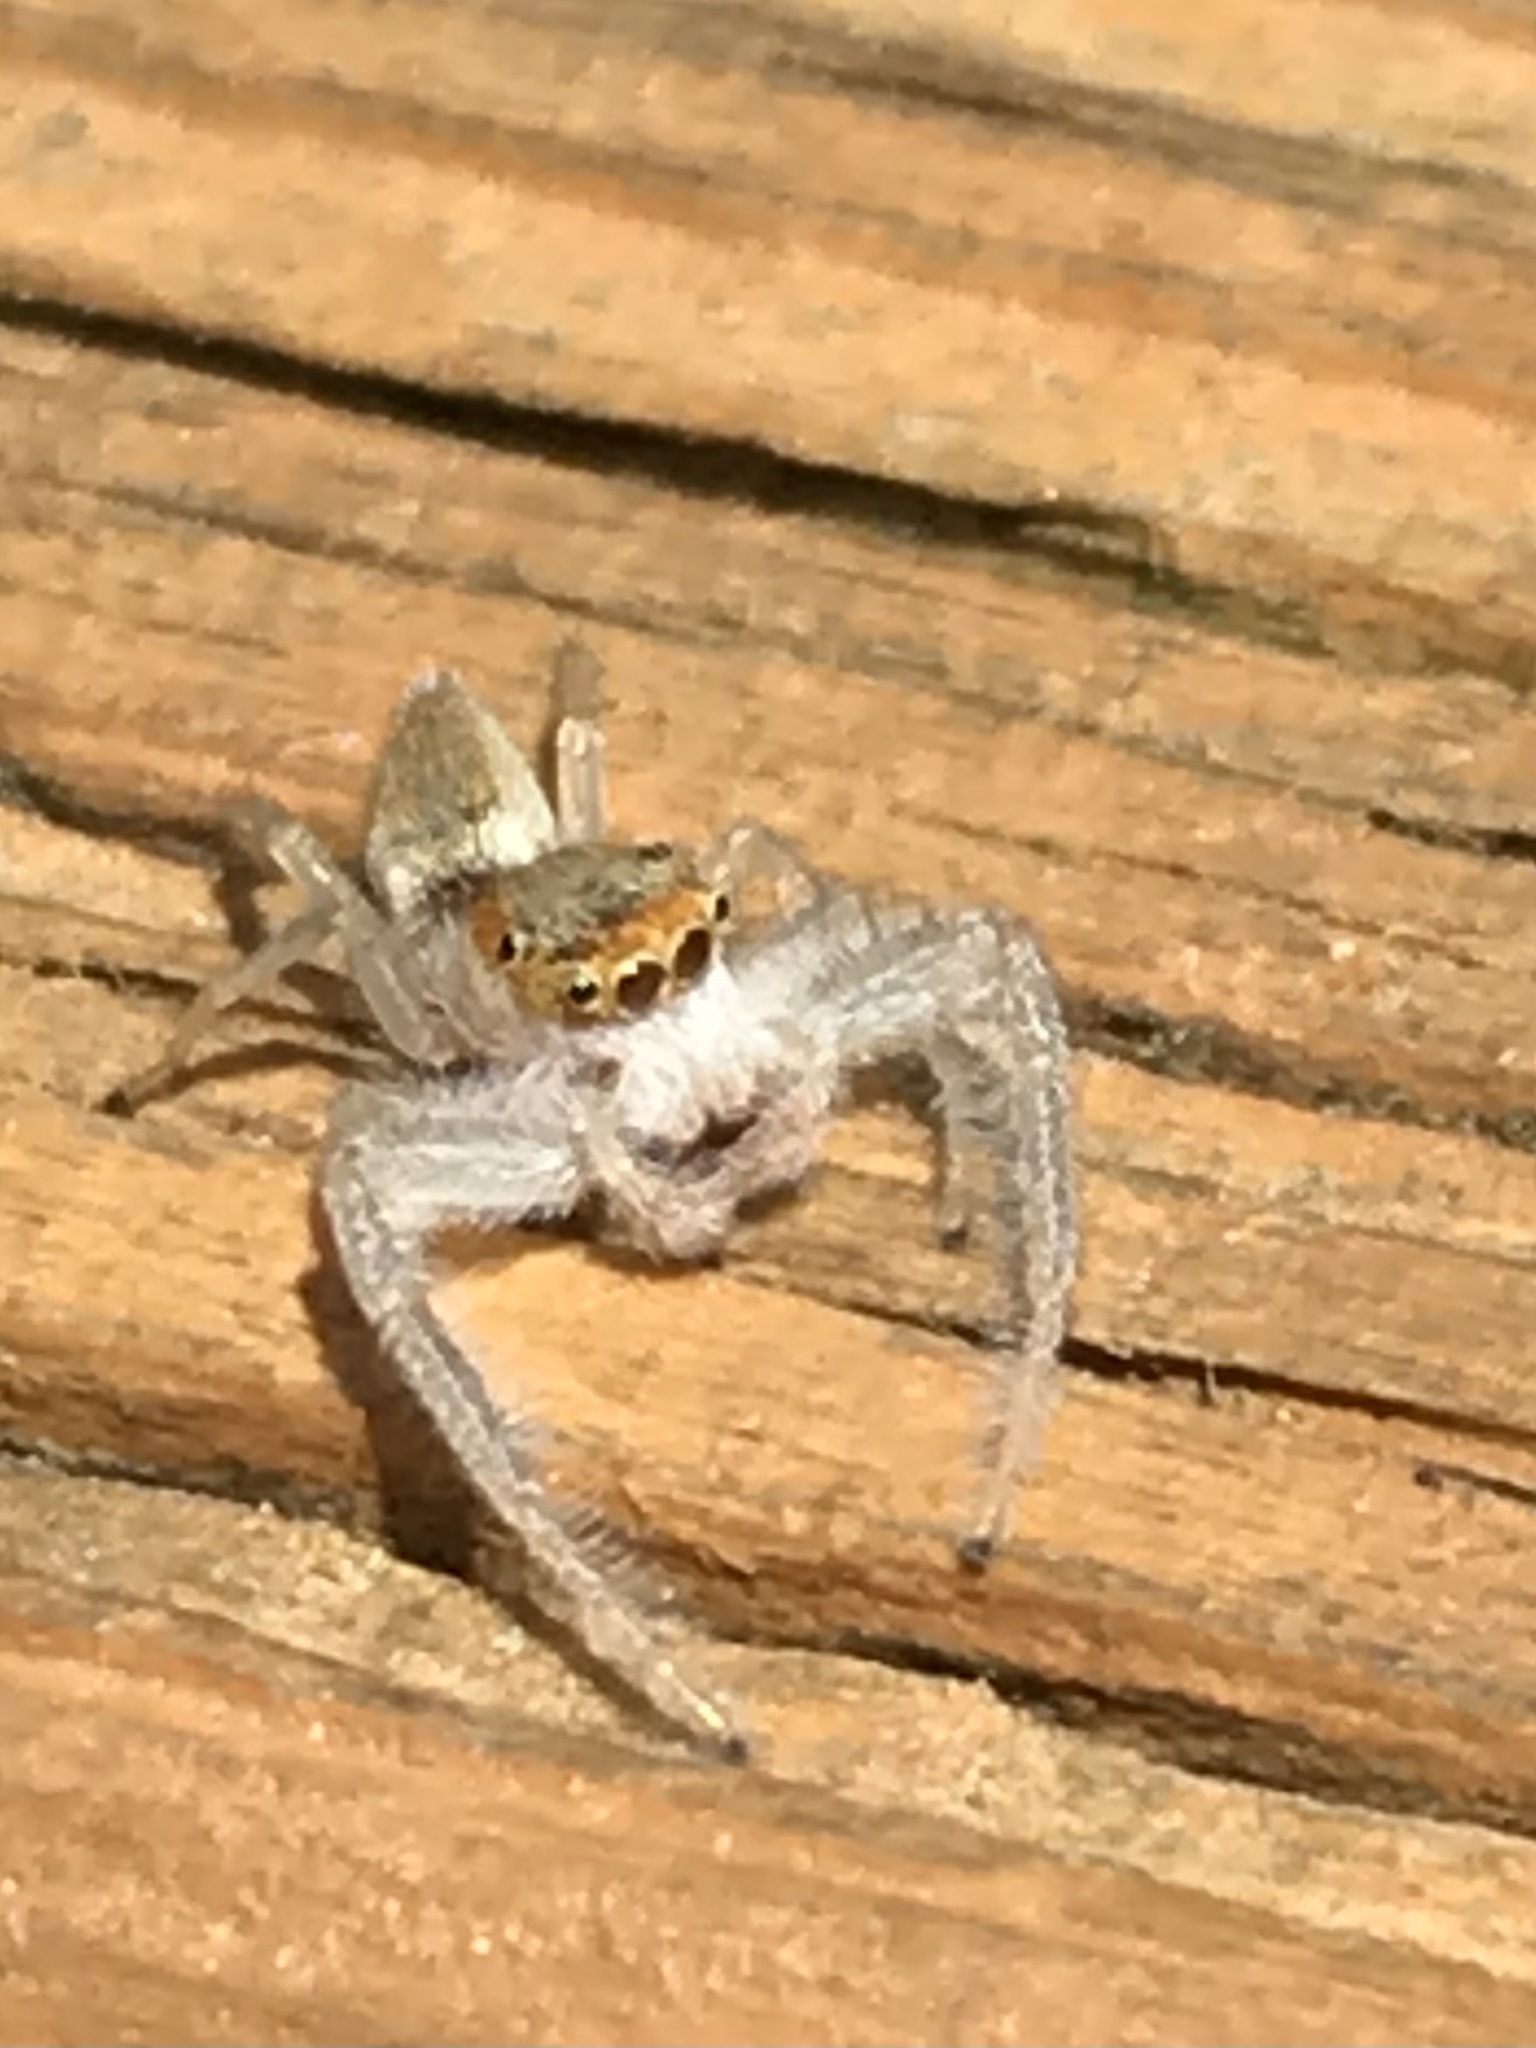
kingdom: Animalia
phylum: Arthropoda
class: Arachnida
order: Araneae
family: Salticidae
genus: Hentzia
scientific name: Hentzia mitrata
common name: White-jawed jumping spider
